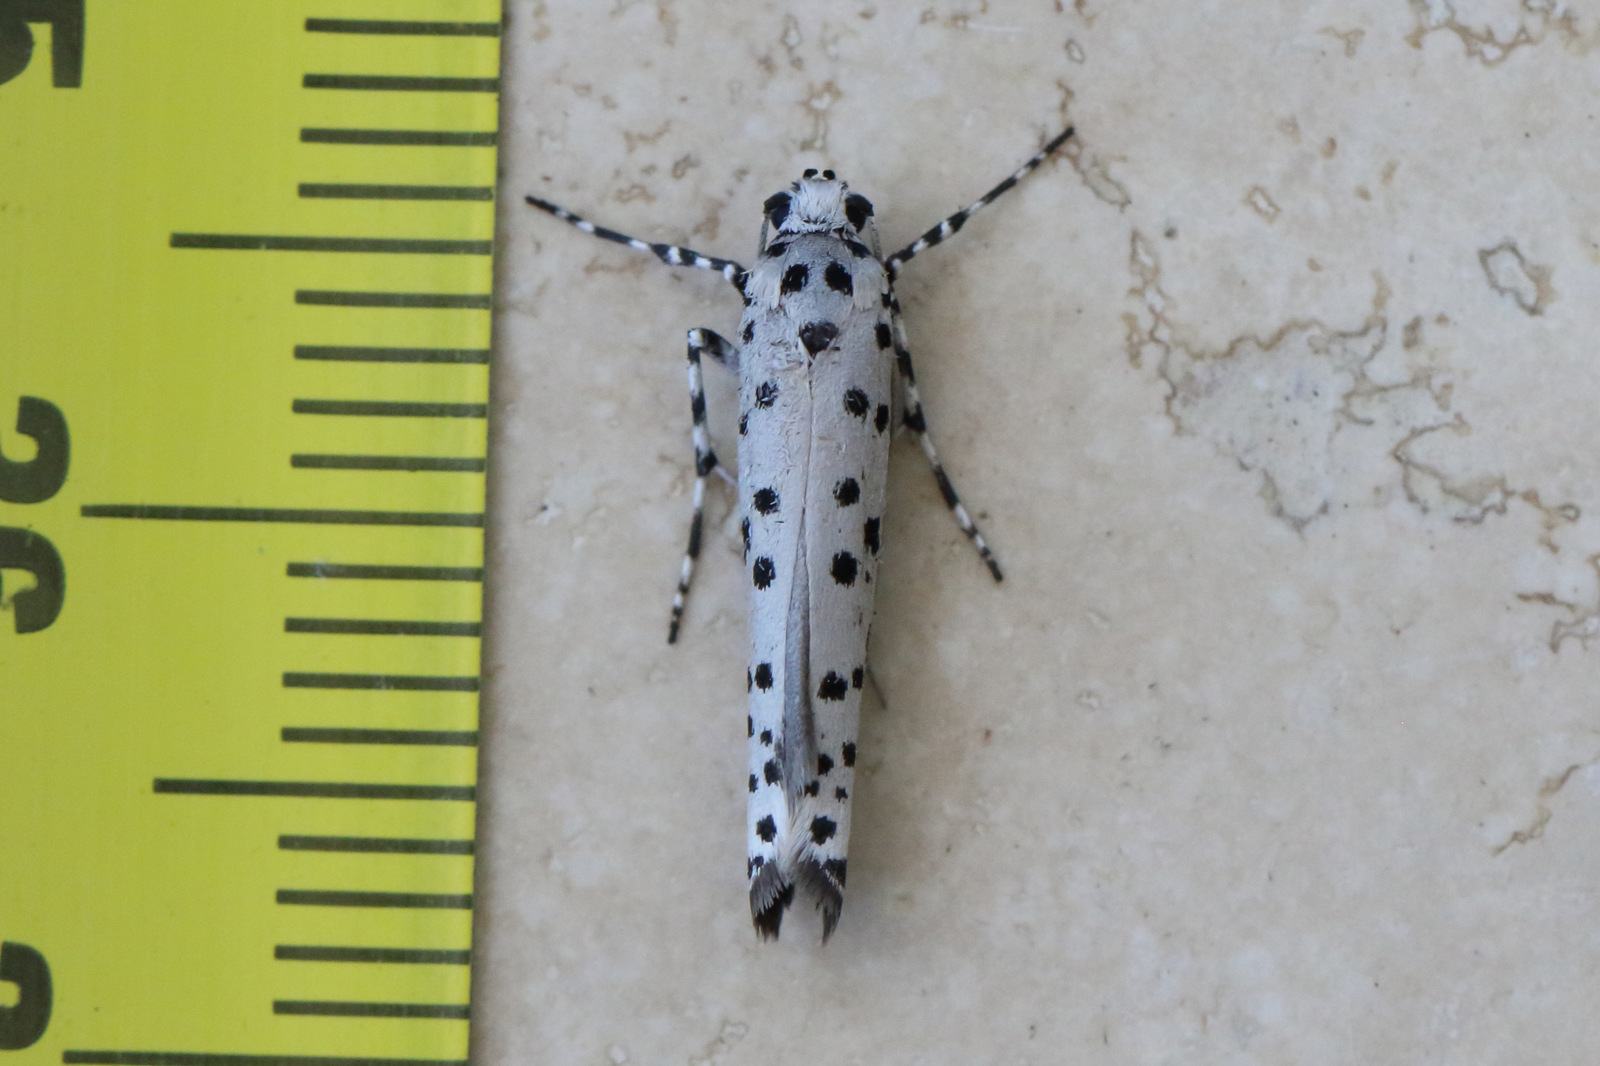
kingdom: Animalia
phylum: Arthropoda
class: Insecta
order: Lepidoptera
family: Yponomeutidae
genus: Yponomeuta
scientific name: Yponomeuta internellus
